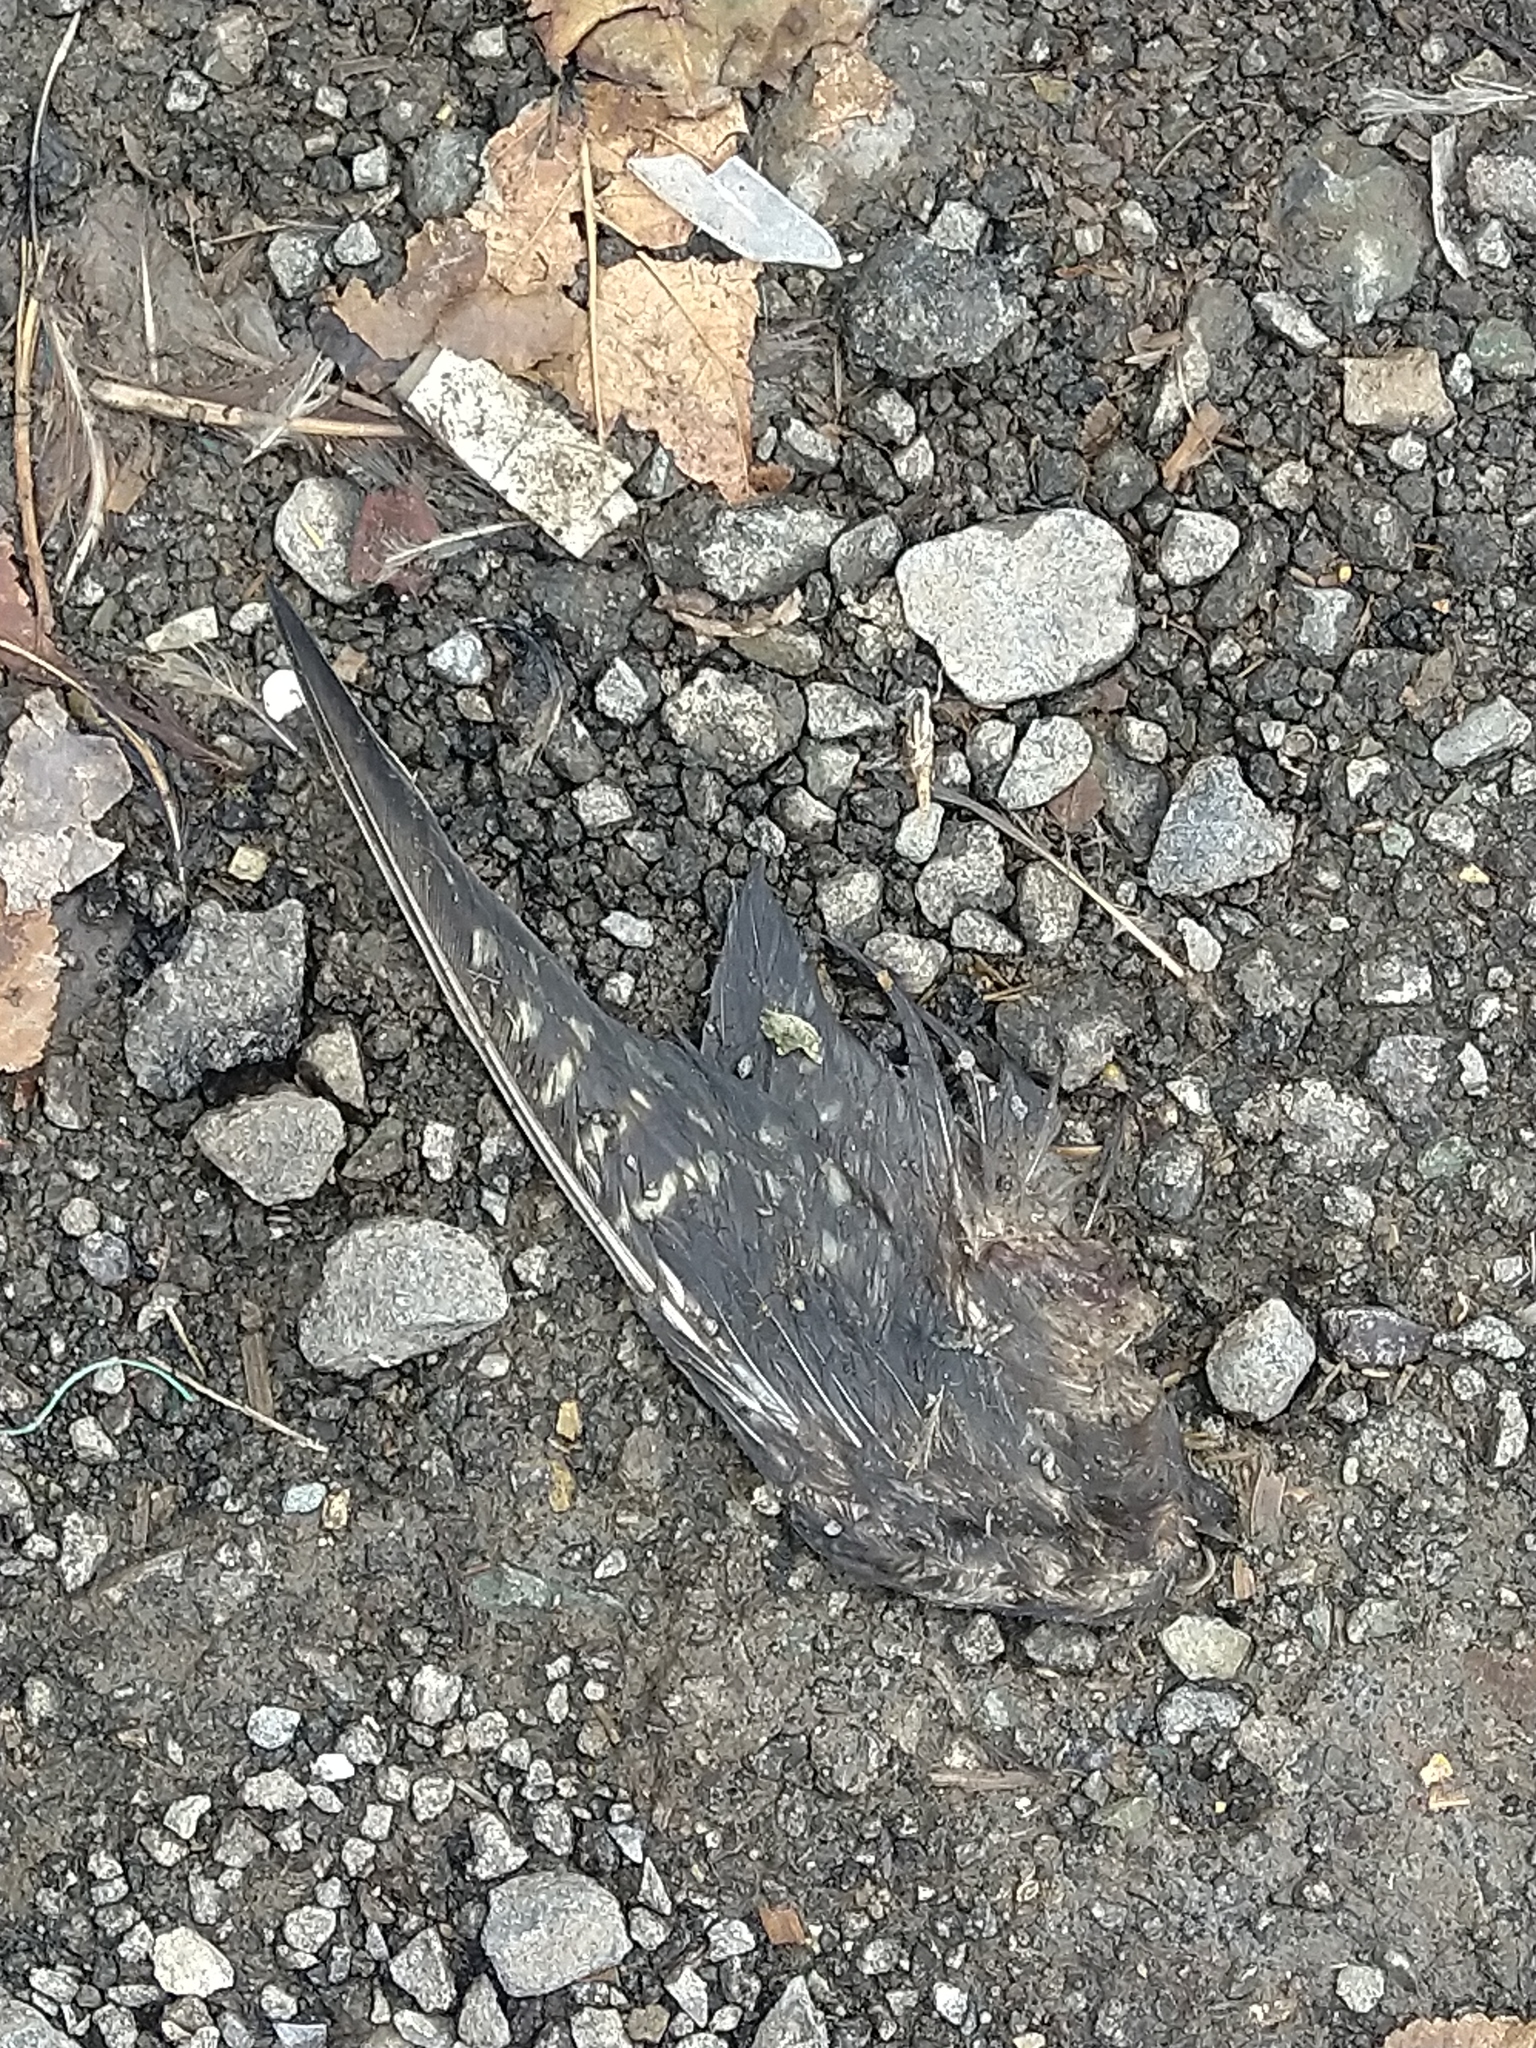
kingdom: Animalia
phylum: Chordata
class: Aves
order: Psittaciformes
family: Psittacidae
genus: Nymphicus
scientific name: Nymphicus hollandicus
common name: Cockatiel
